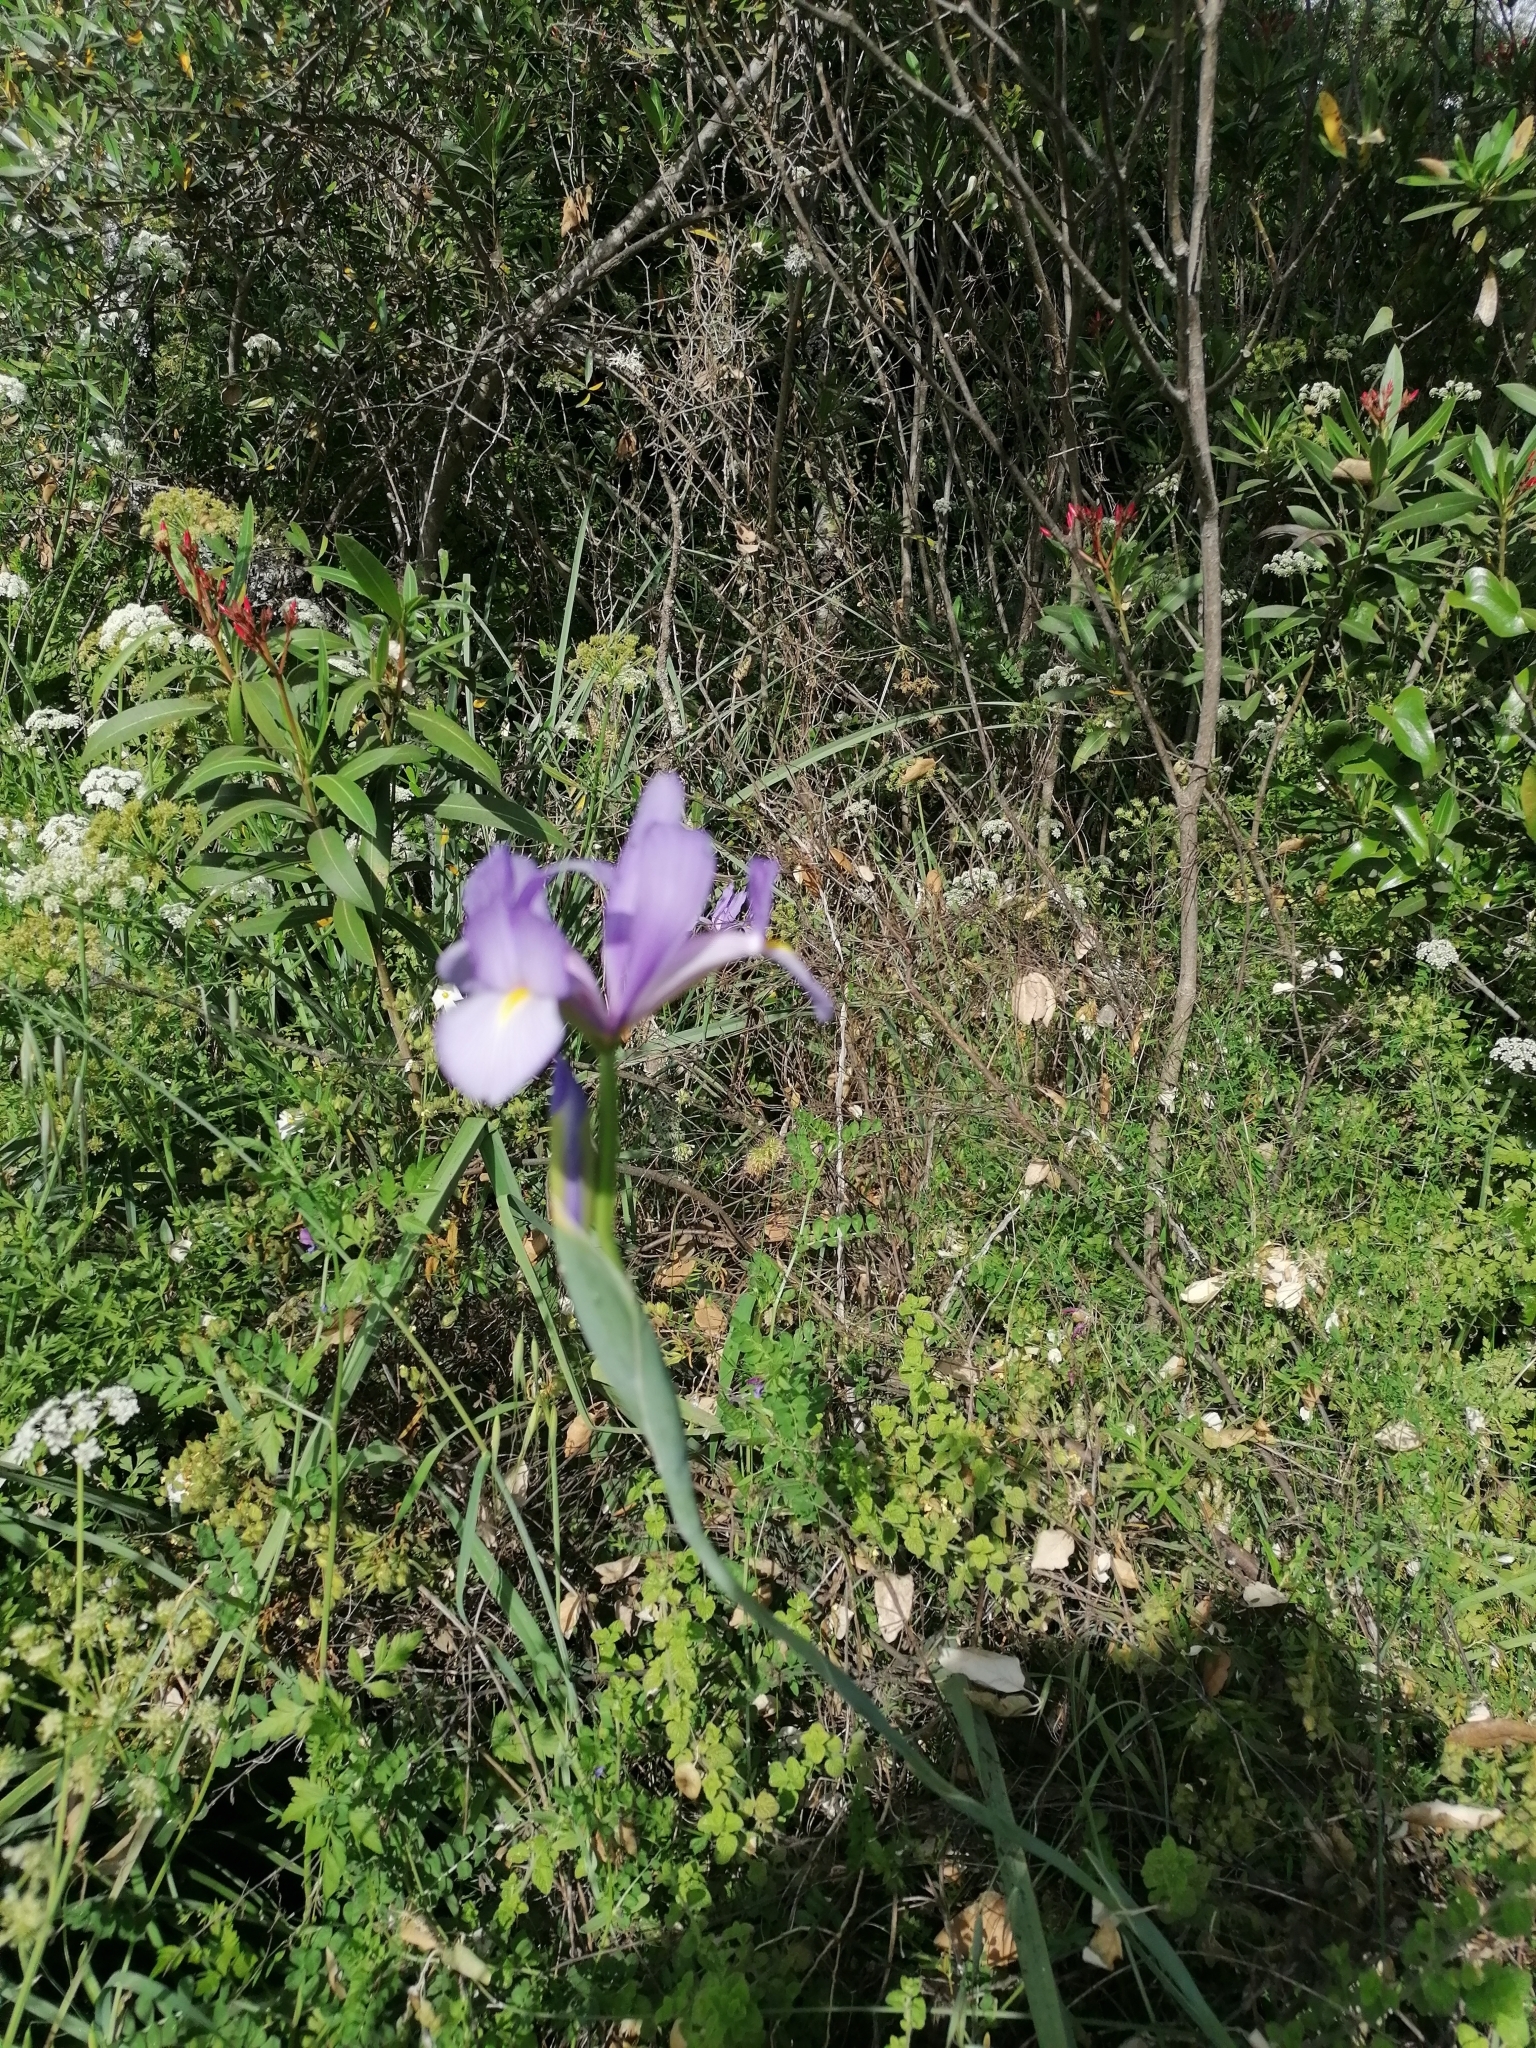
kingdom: Plantae
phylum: Tracheophyta
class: Liliopsida
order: Asparagales
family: Iridaceae
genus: Iris
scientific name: Iris xiphium
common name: Spanish iris
